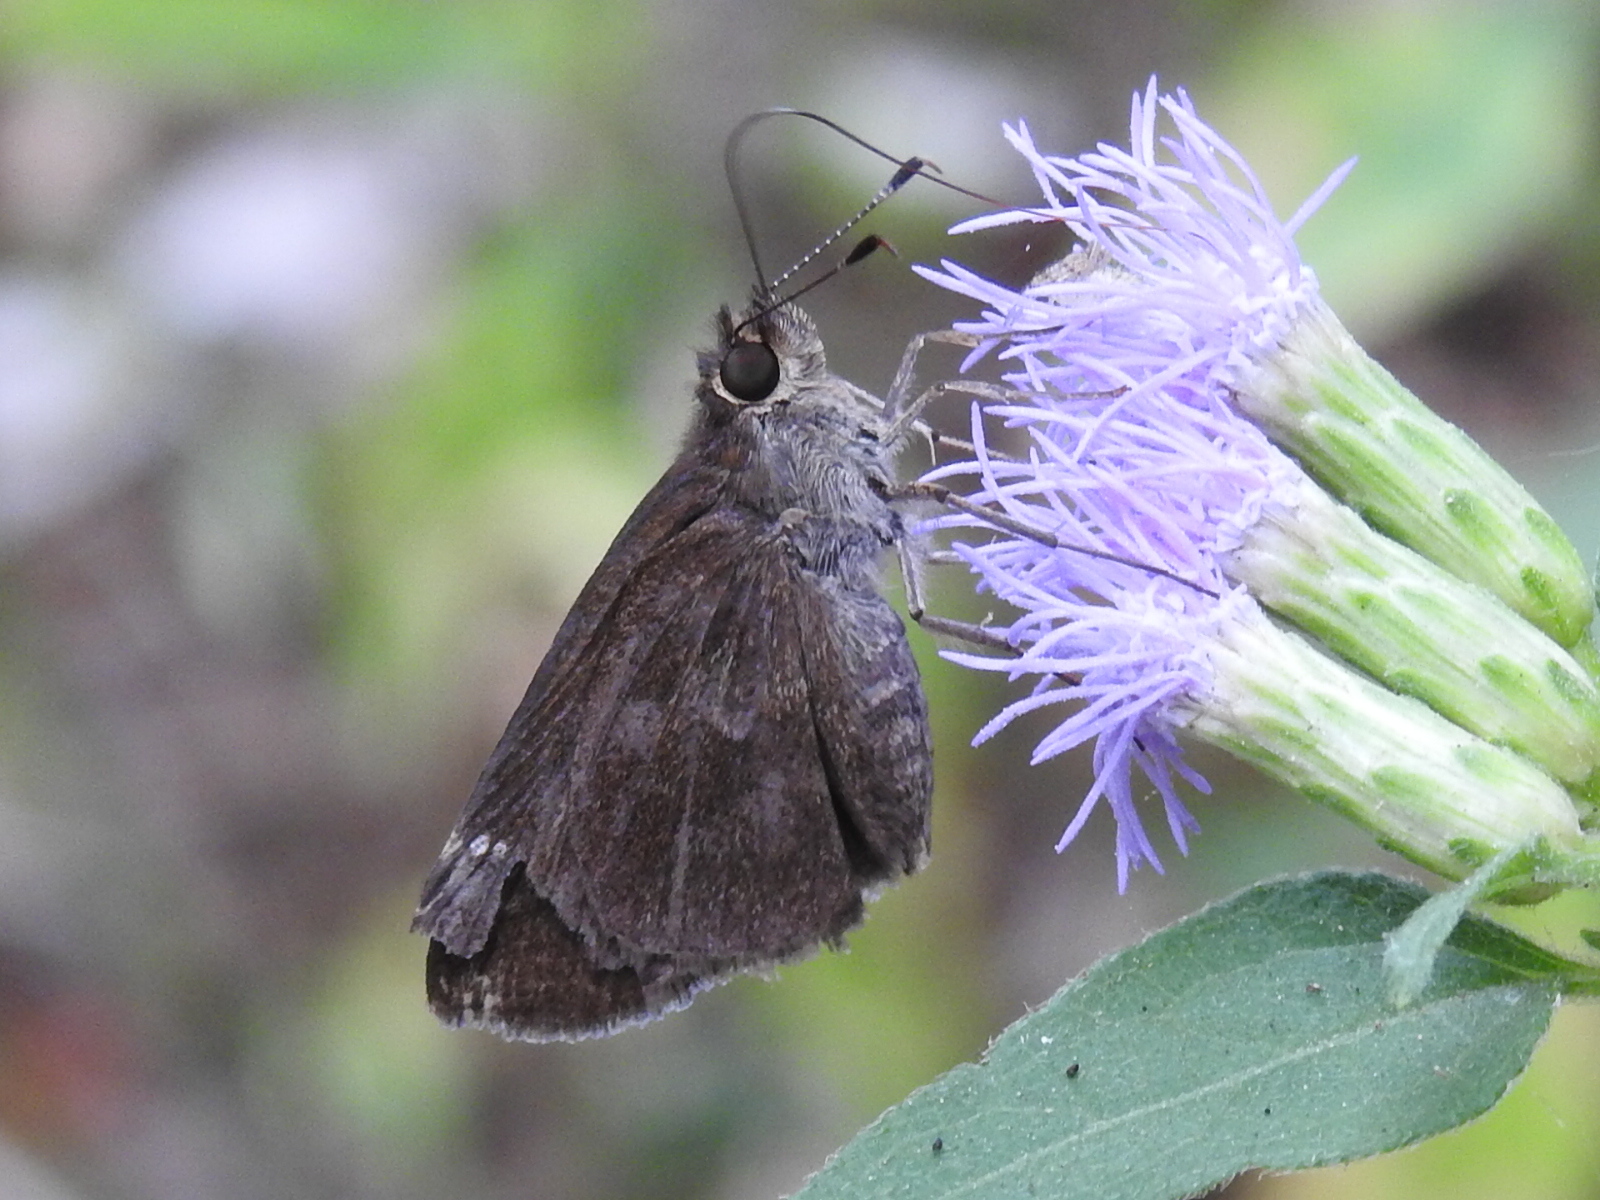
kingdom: Animalia
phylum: Arthropoda
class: Insecta
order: Lepidoptera
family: Hesperiidae
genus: Cymaenes
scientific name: Cymaenes
